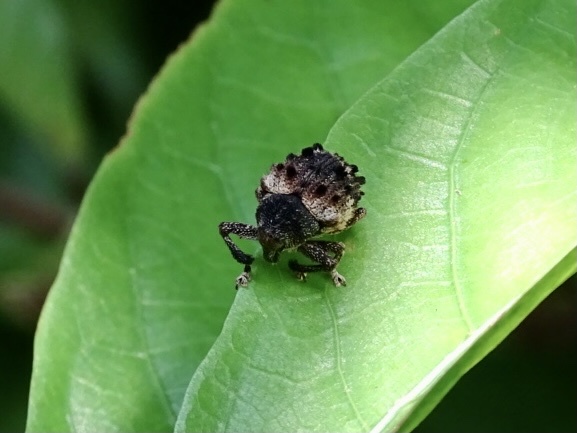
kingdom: Animalia
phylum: Arthropoda
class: Insecta
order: Coleoptera
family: Brachyceridae
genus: Desmidophorus
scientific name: Desmidophorus hebes
